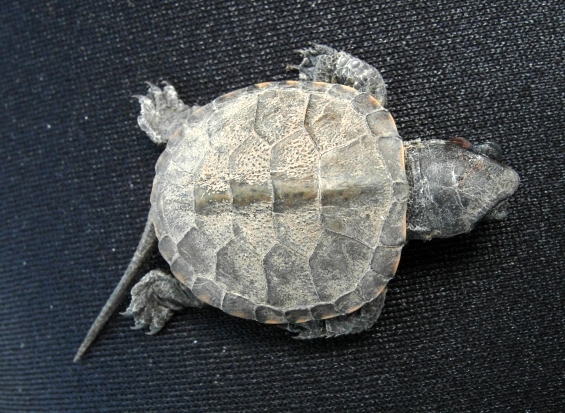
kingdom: Animalia
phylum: Chordata
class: Testudines
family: Emydidae
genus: Emys
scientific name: Emys orbicularis
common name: European pond turtle
